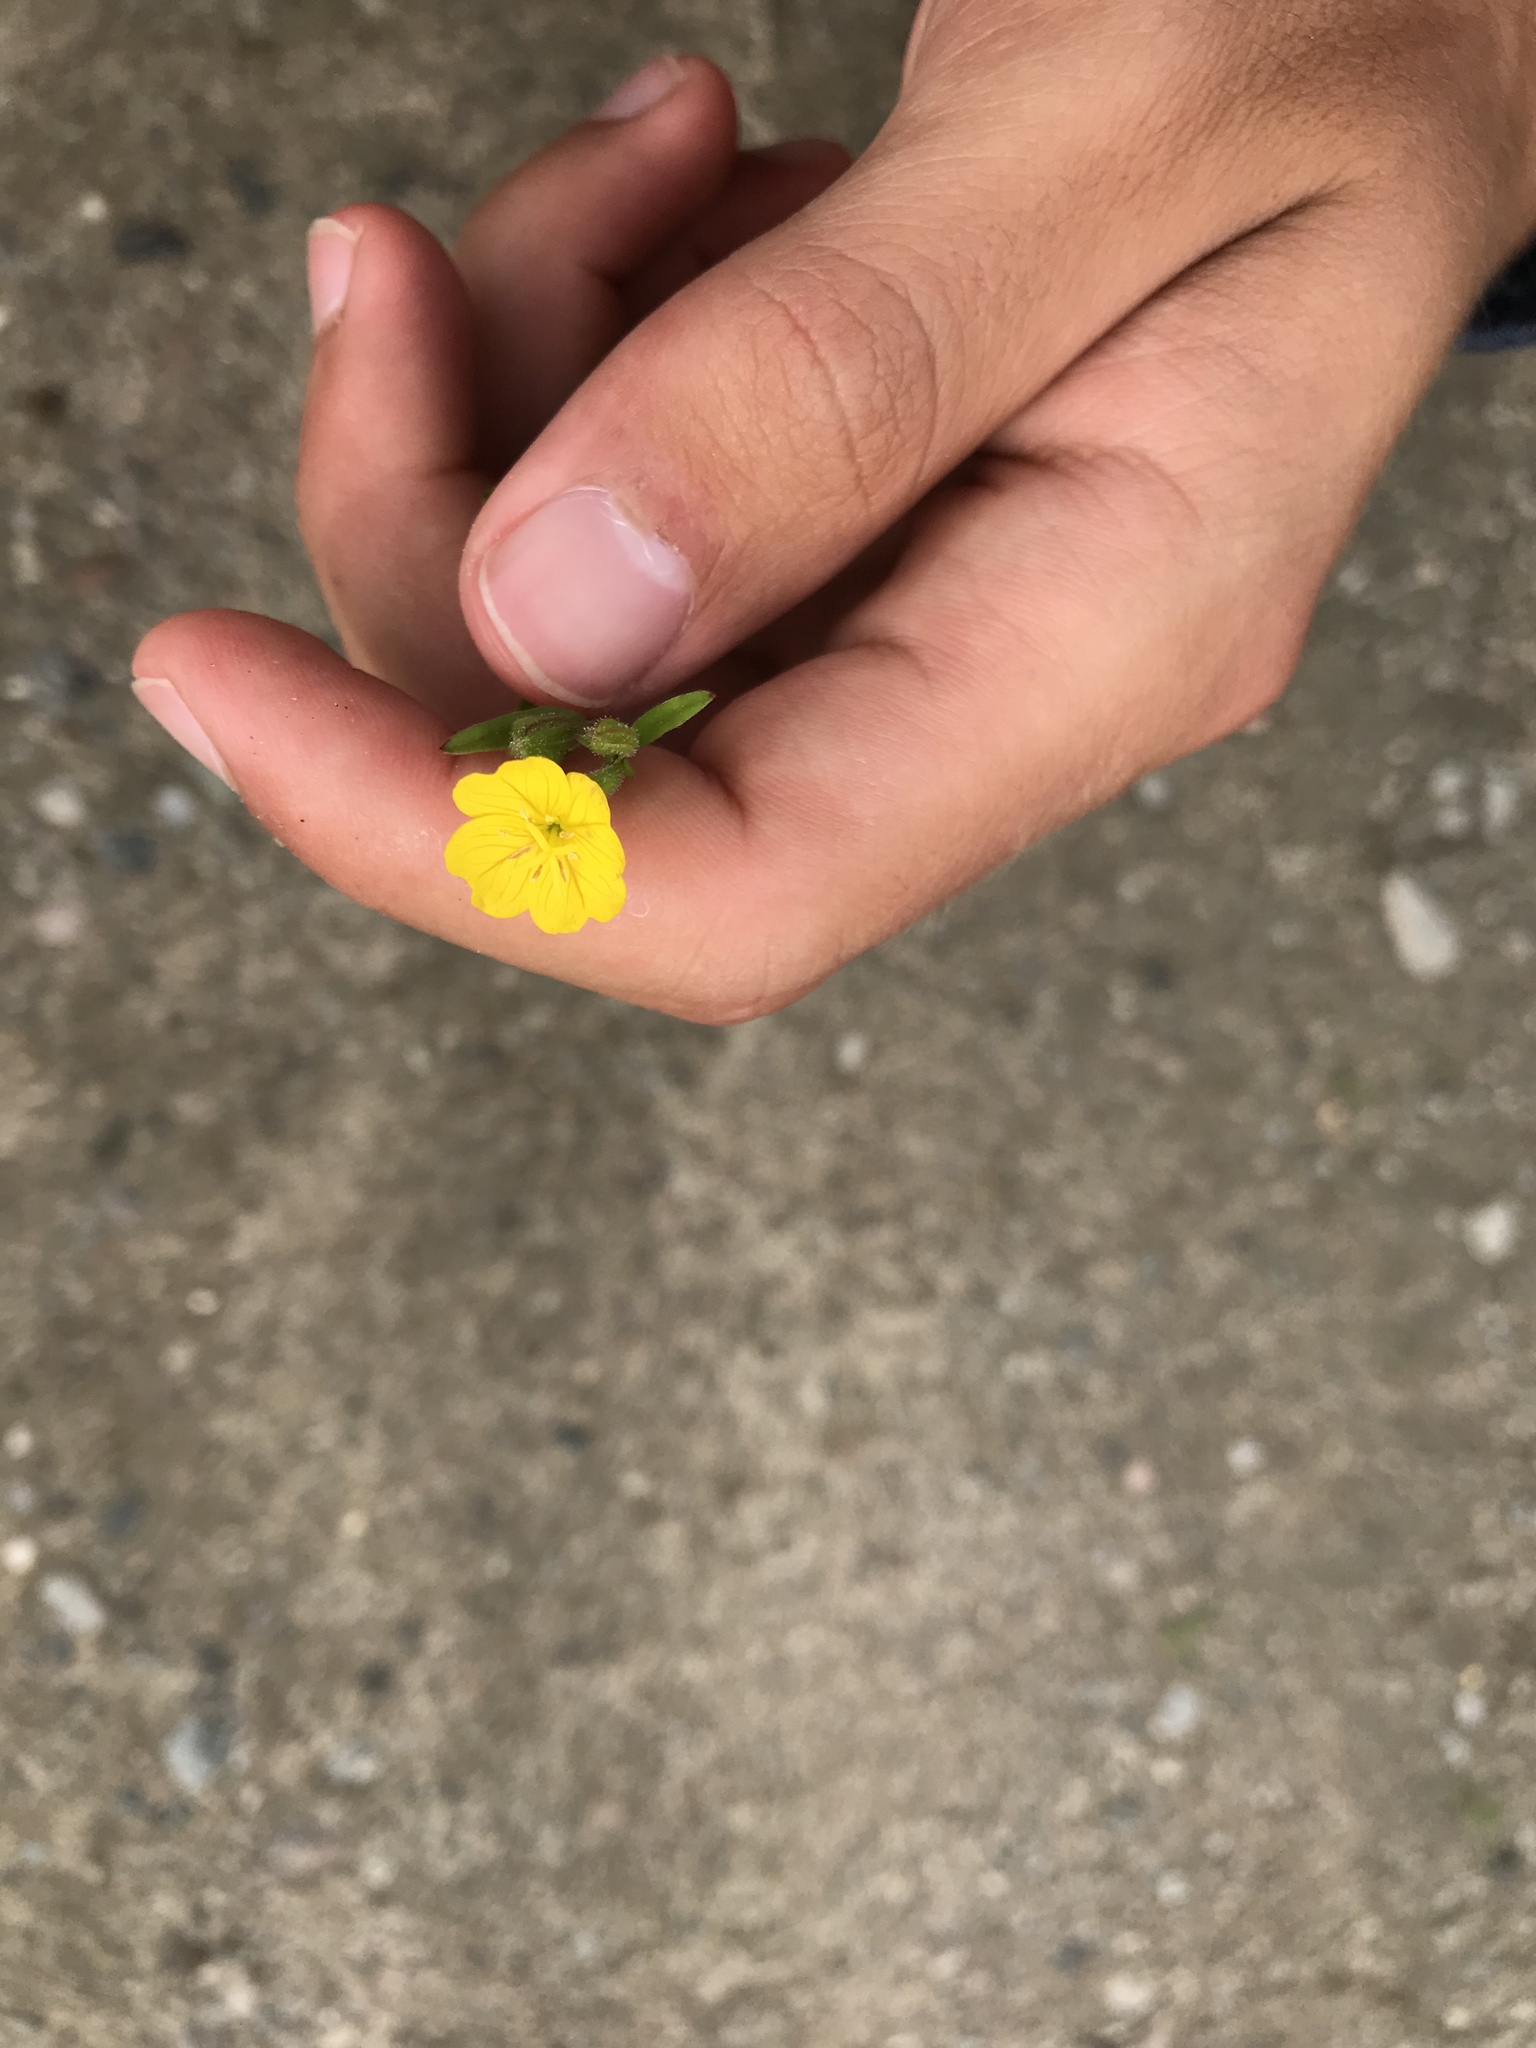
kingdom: Plantae
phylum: Tracheophyta
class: Magnoliopsida
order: Myrtales
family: Onagraceae
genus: Oenothera
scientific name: Oenothera perennis
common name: Small sundrops
